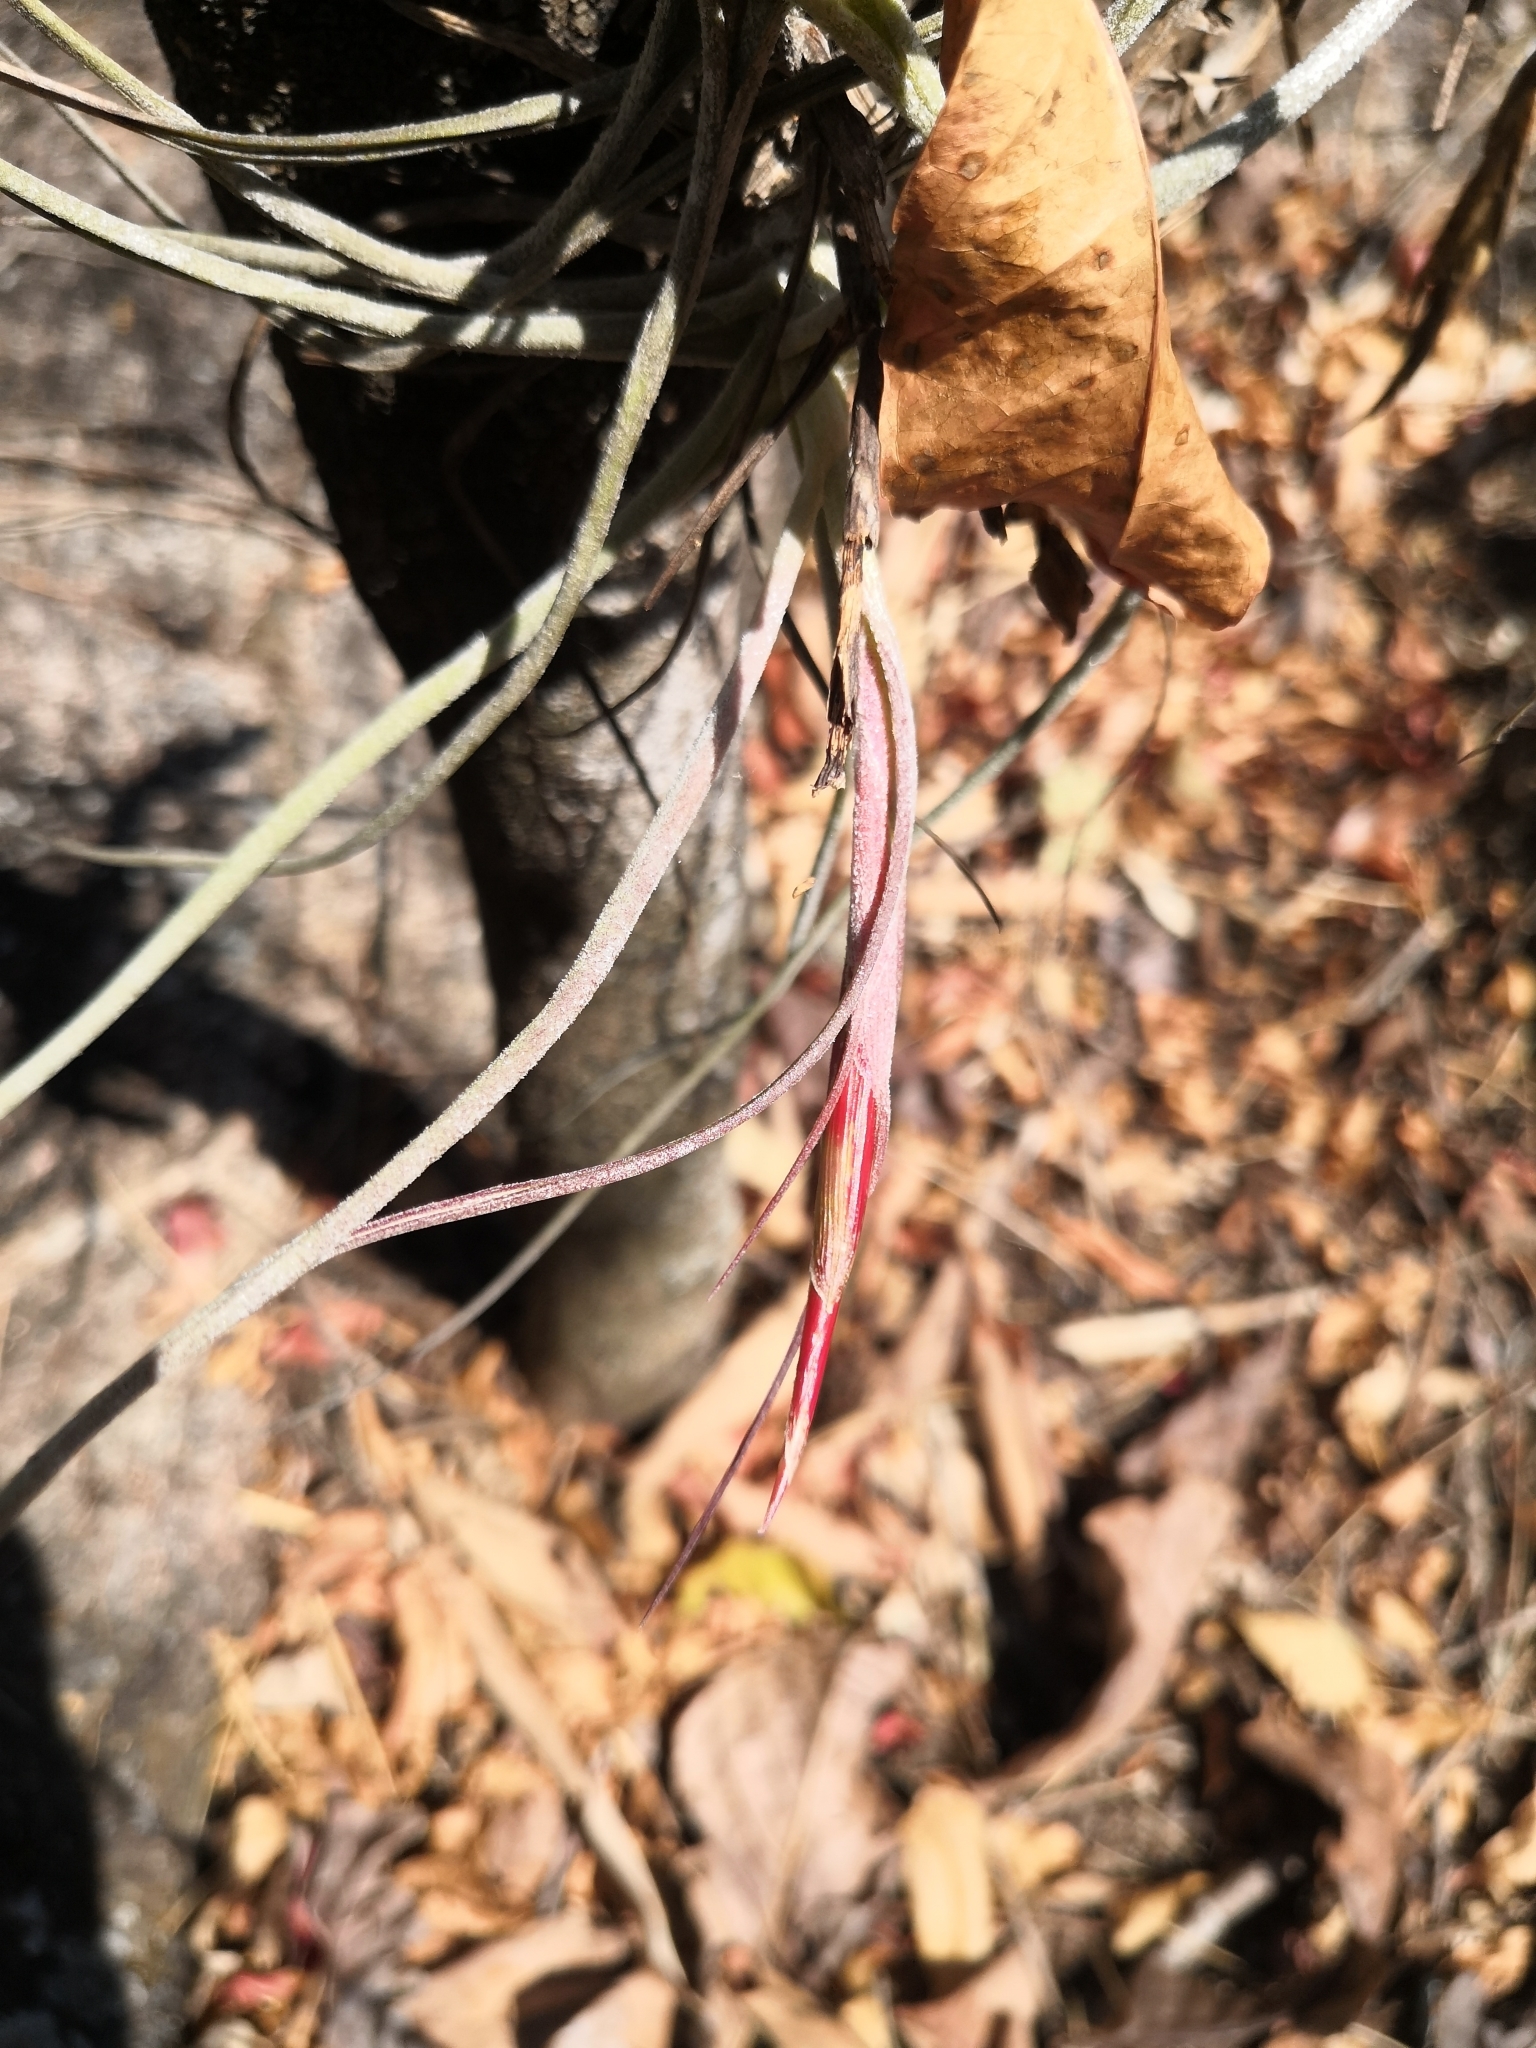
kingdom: Plantae
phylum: Tracheophyta
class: Liliopsida
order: Poales
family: Bromeliaceae
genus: Tillandsia
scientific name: Tillandsia schiedeana
